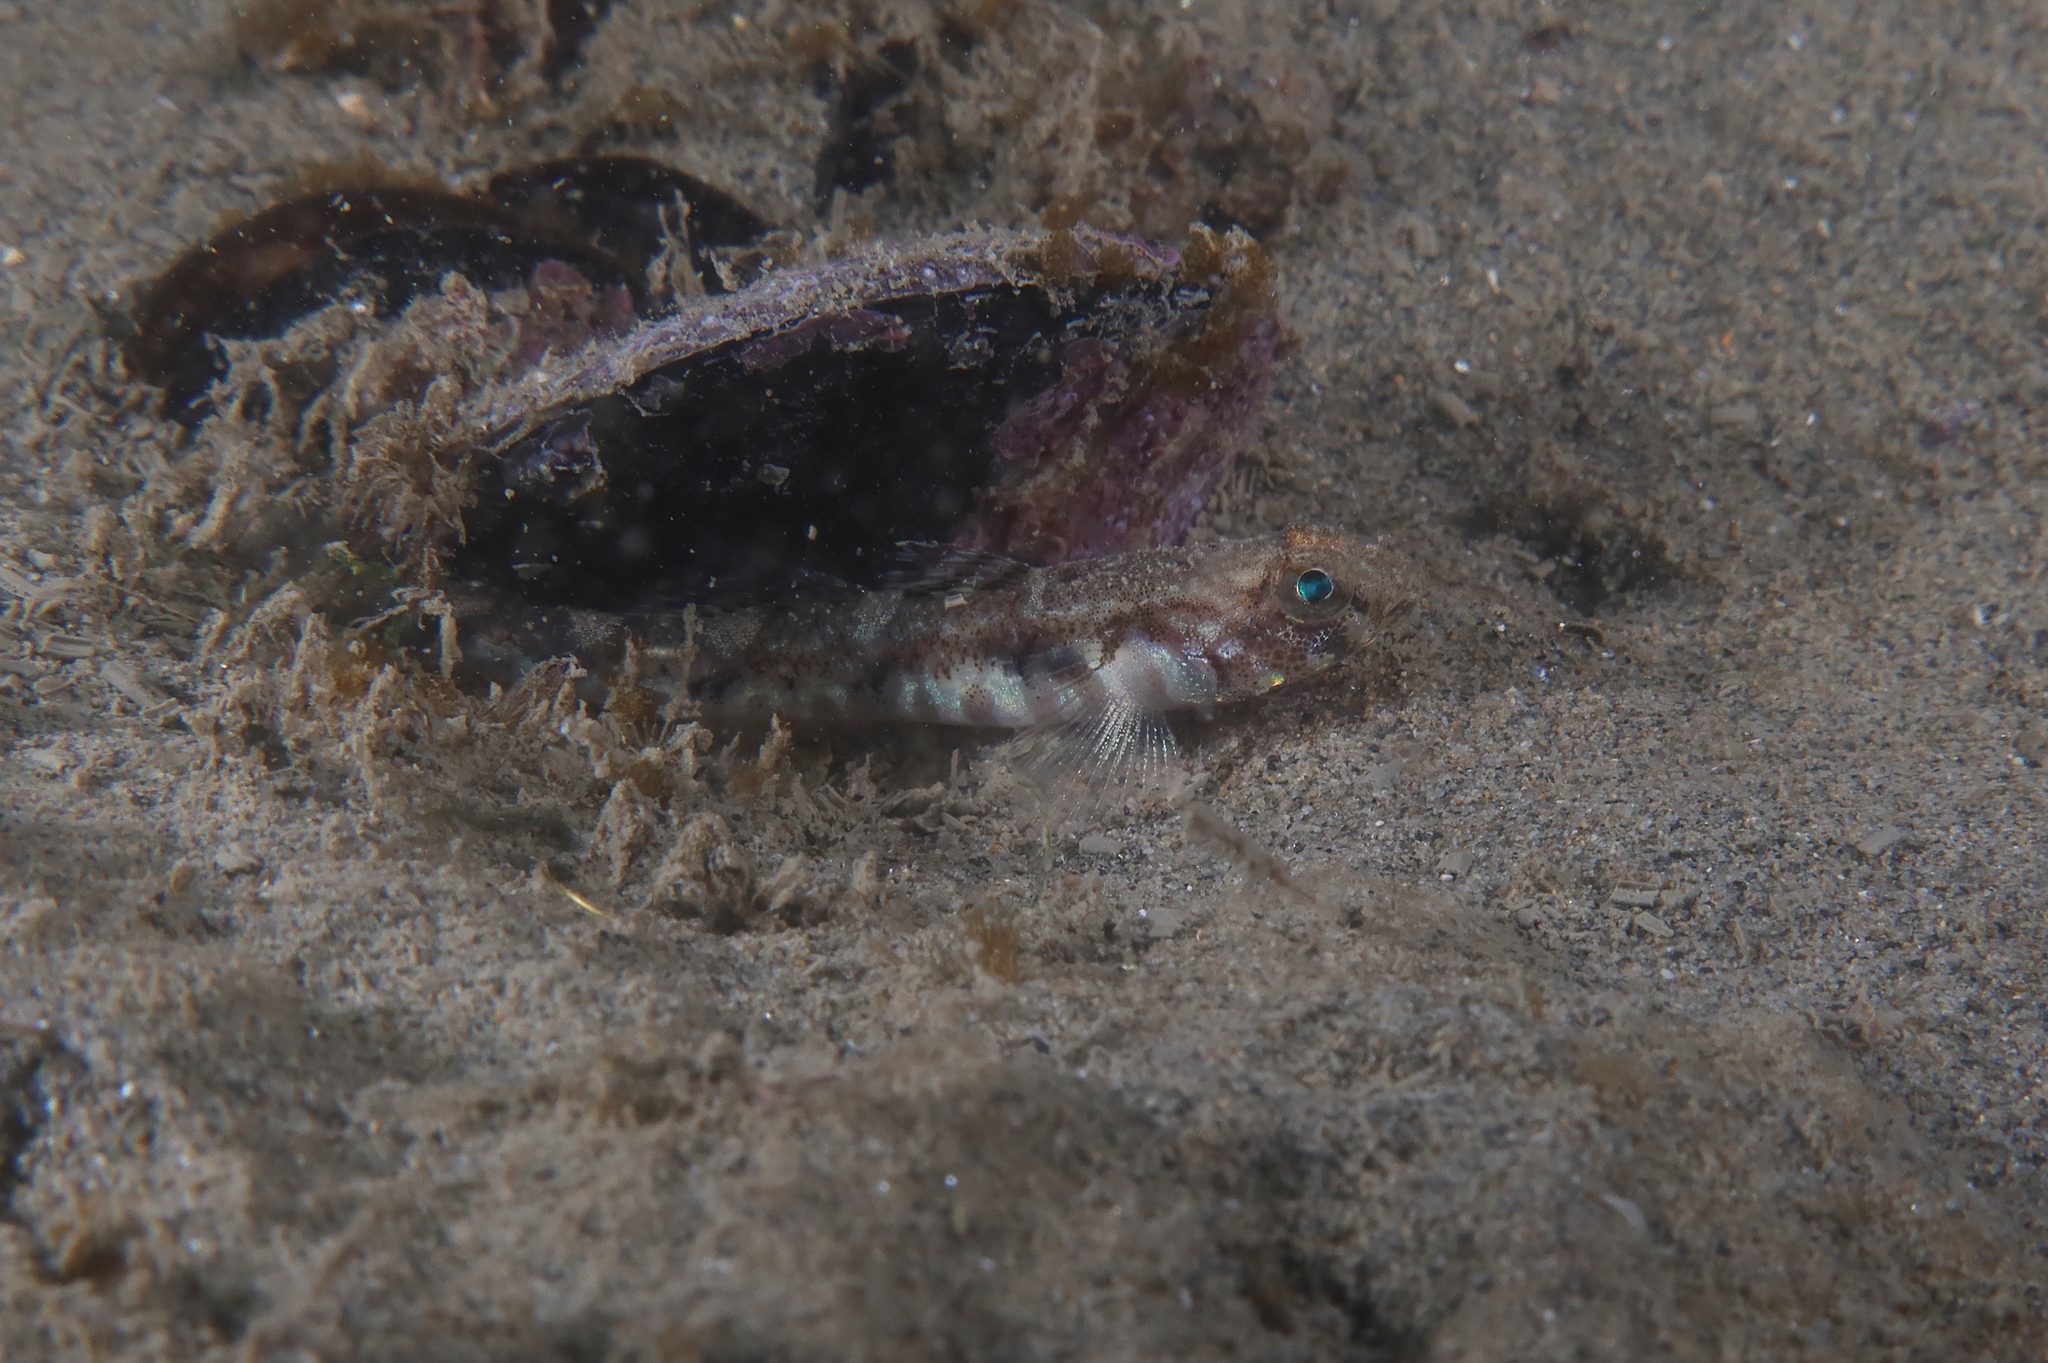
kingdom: Animalia
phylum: Chordata
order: Perciformes
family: Gobiidae
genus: Pomatoschistus
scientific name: Pomatoschistus pictus
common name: Painted goby
